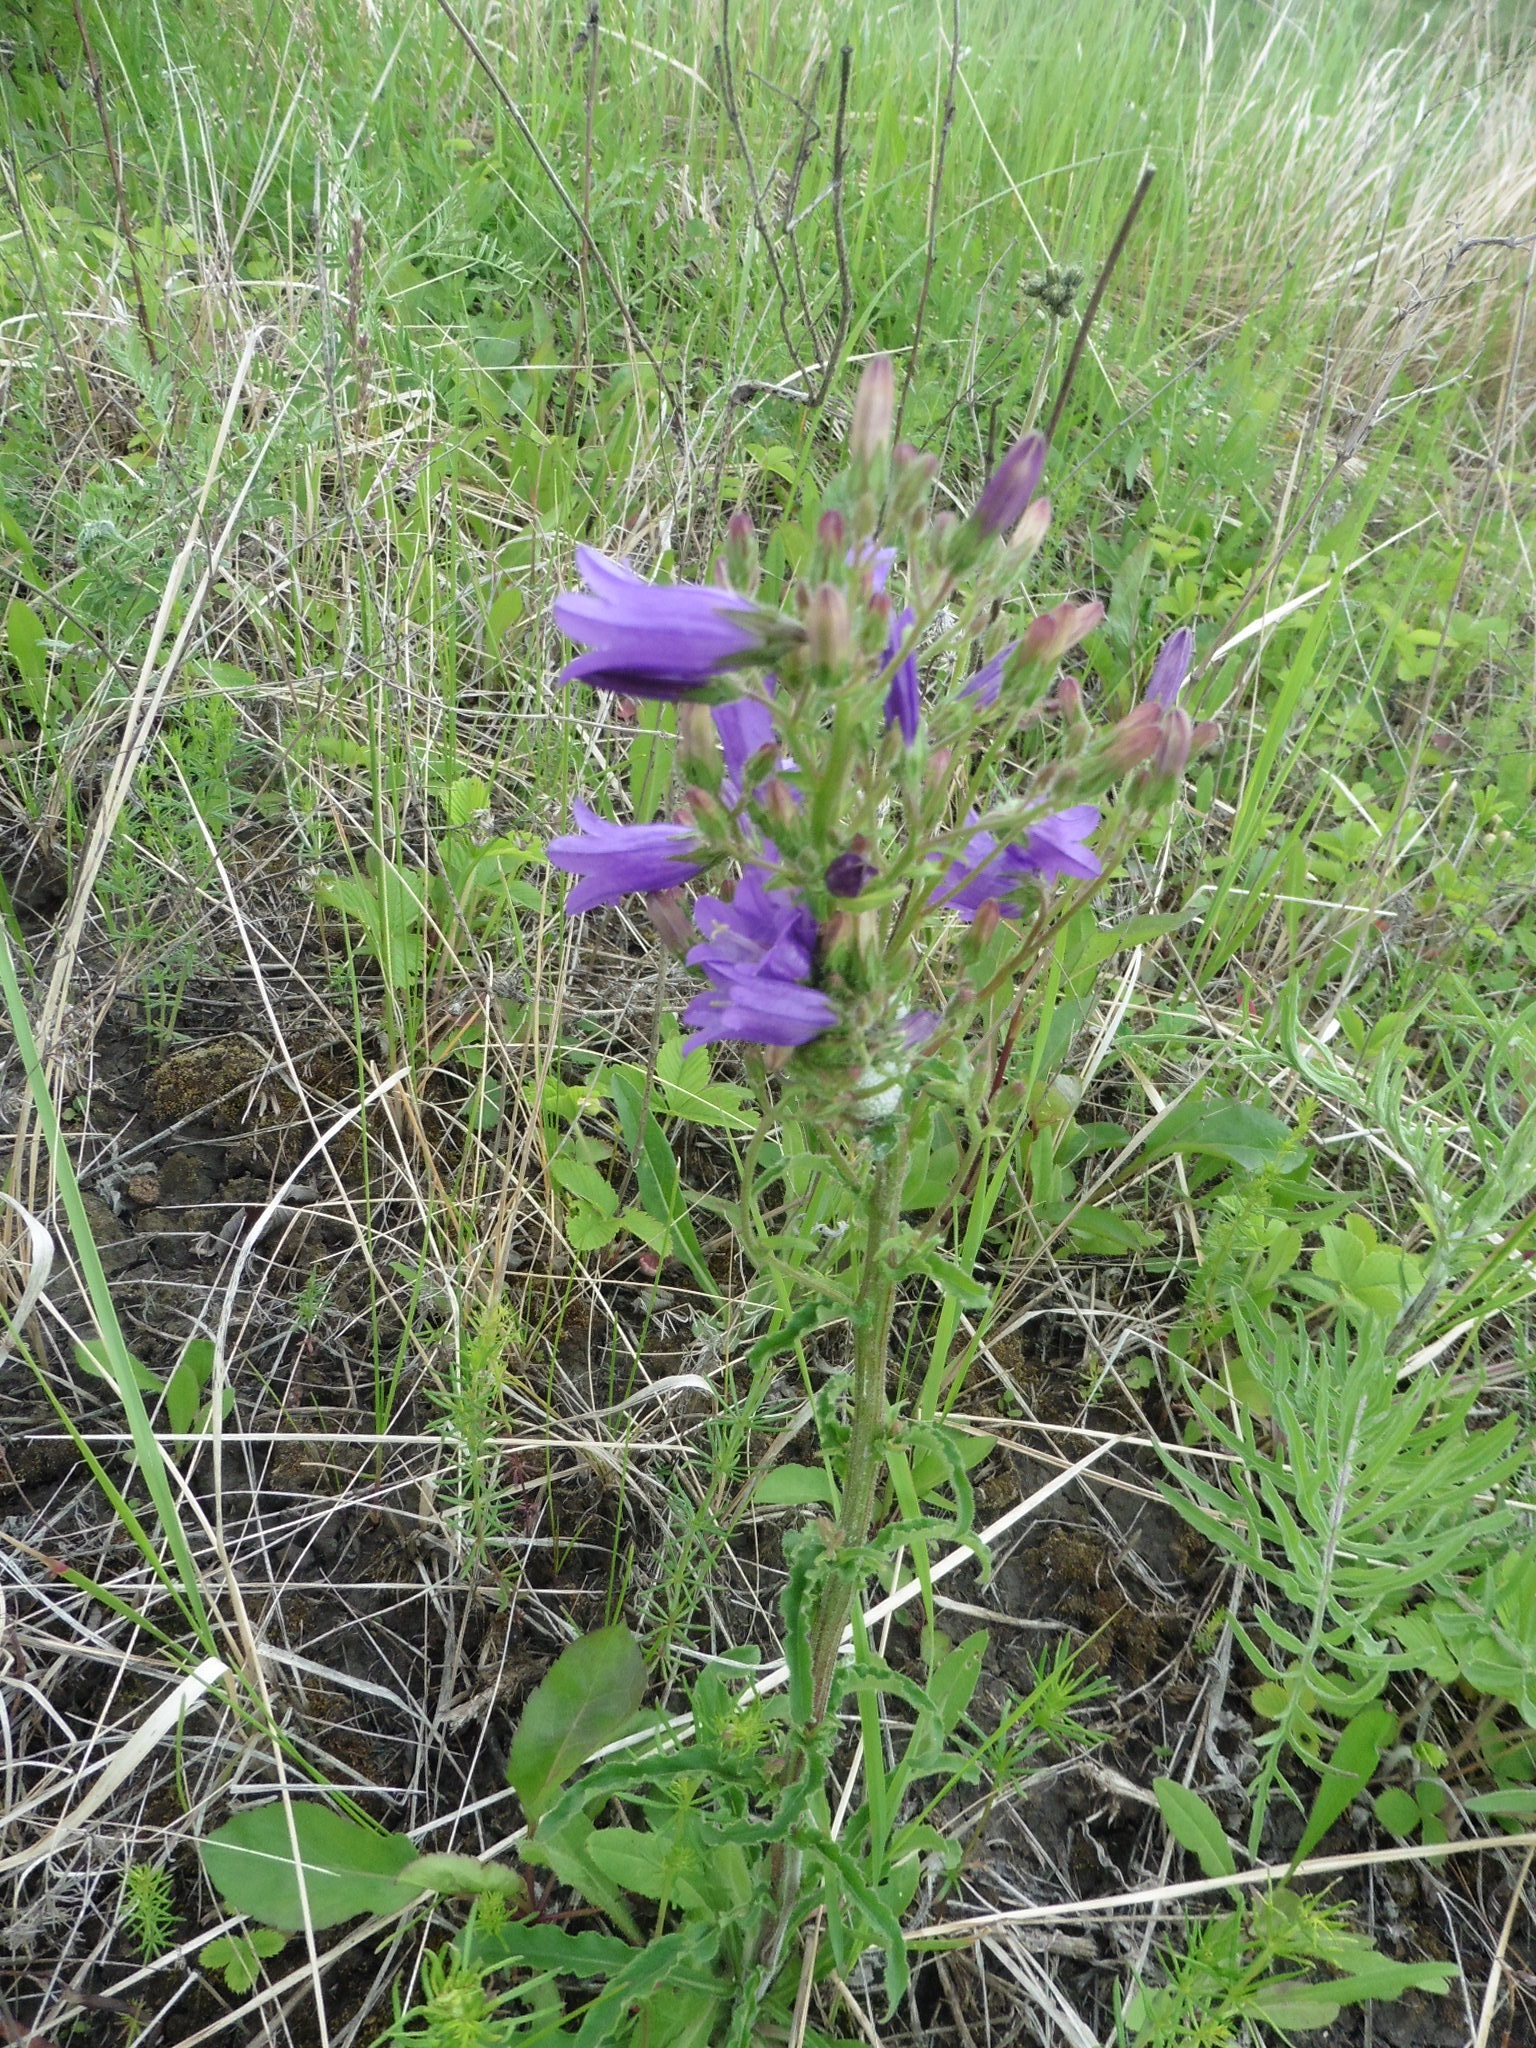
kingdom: Plantae
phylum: Tracheophyta
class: Magnoliopsida
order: Asterales
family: Campanulaceae
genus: Campanula
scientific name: Campanula sibirica
